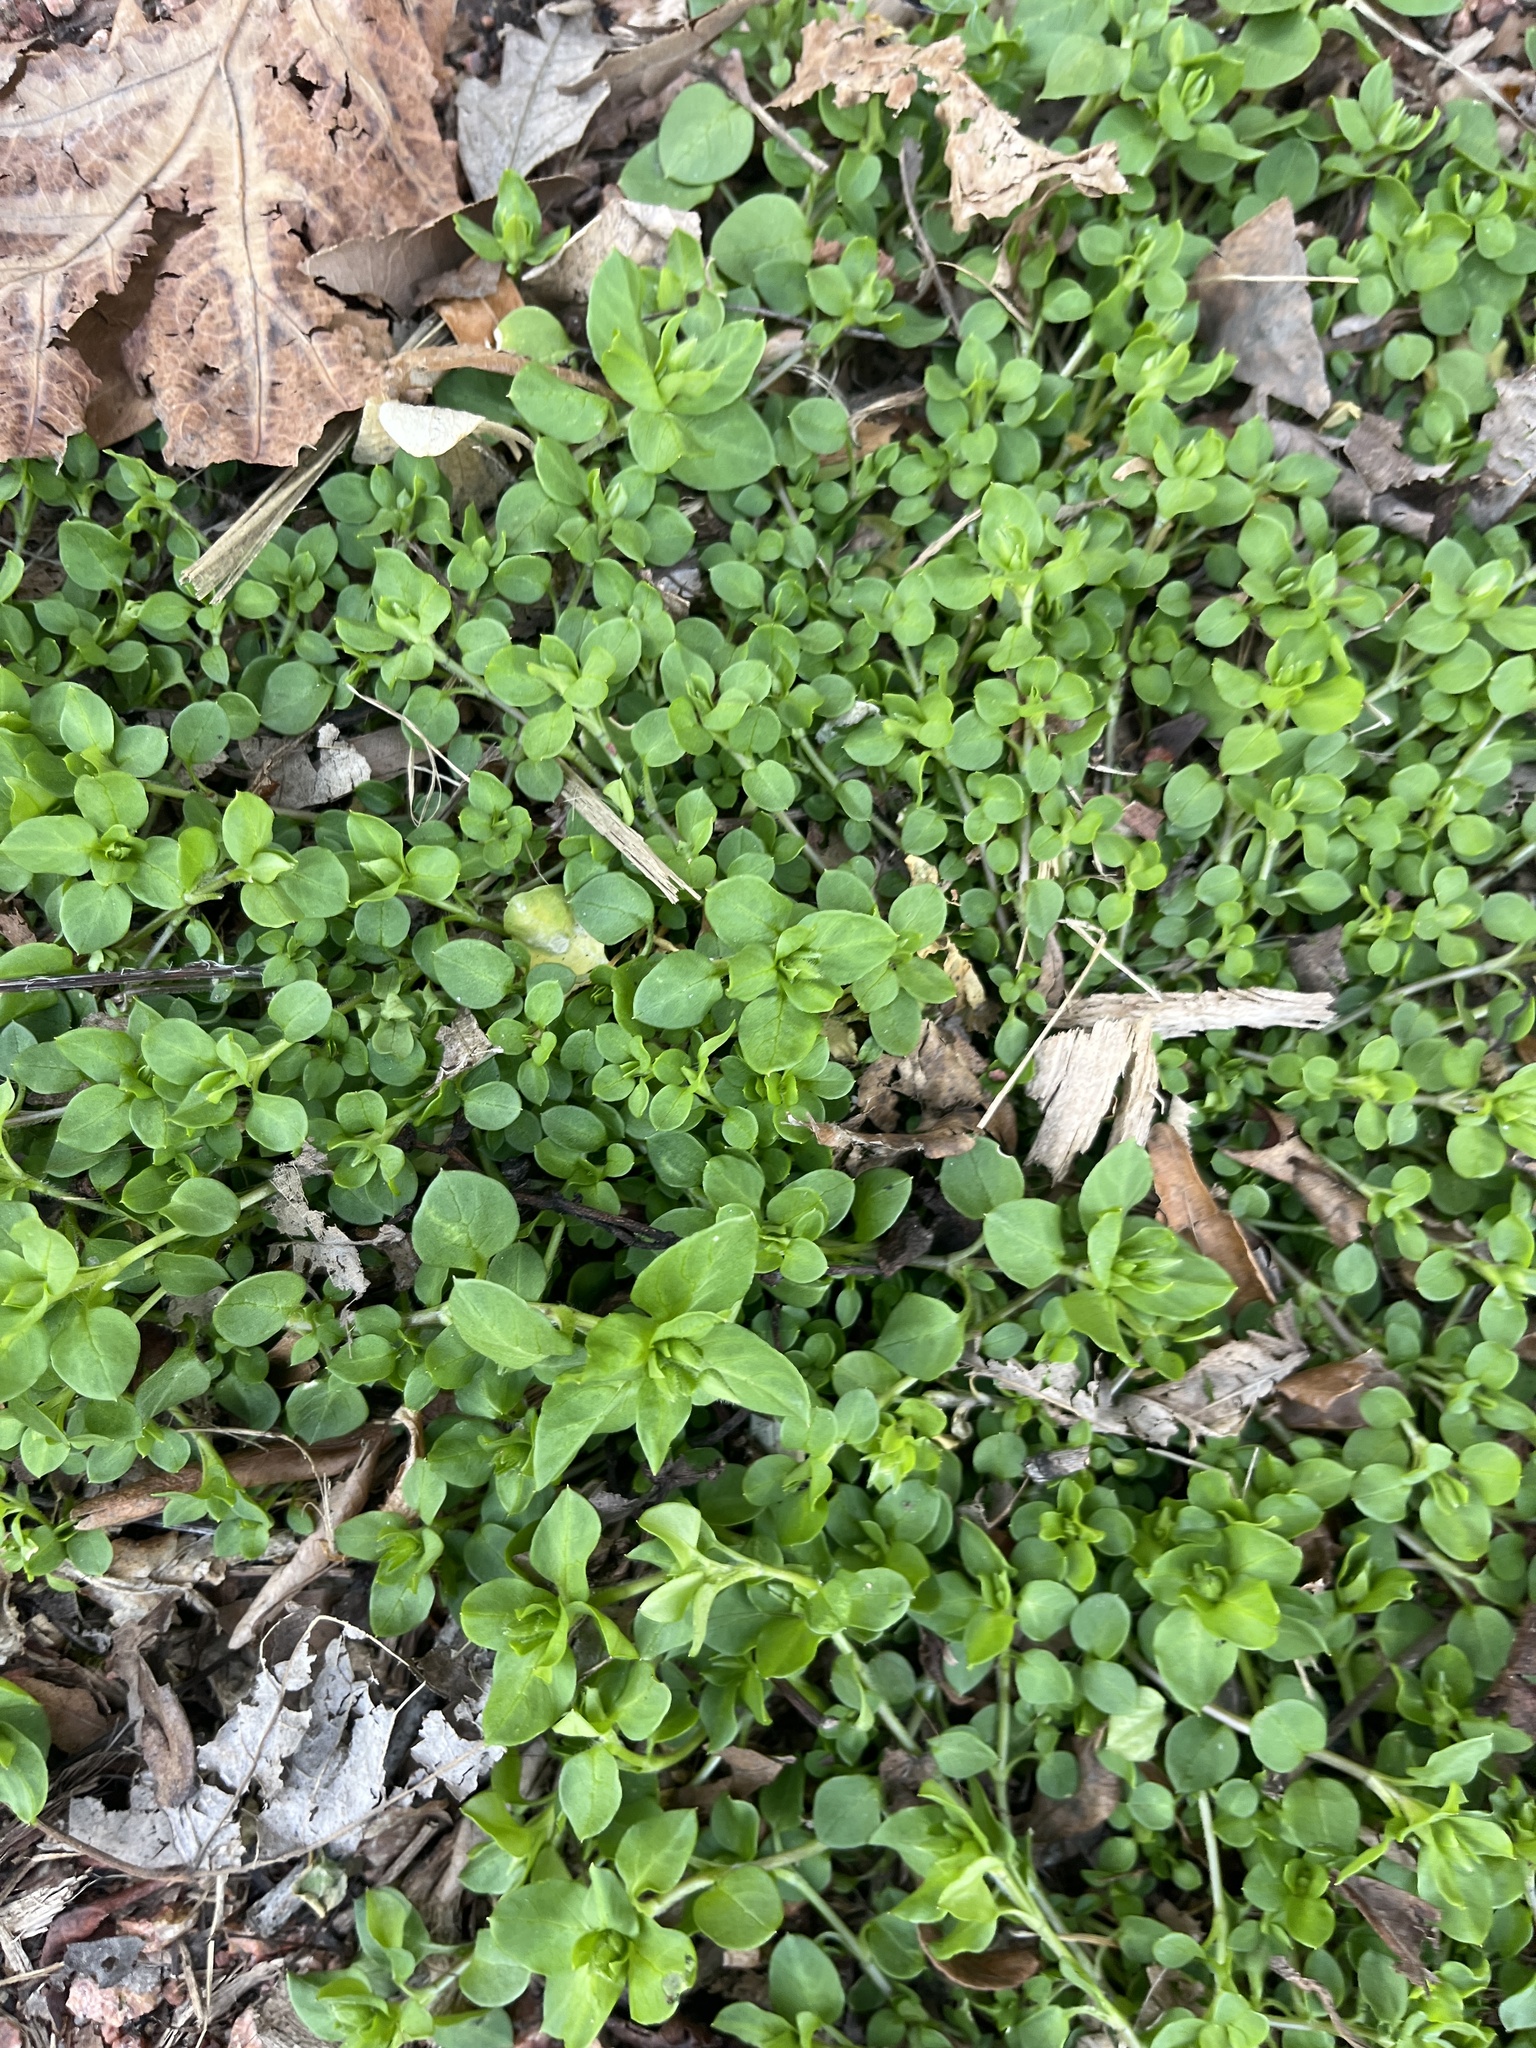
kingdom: Plantae
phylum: Tracheophyta
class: Magnoliopsida
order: Caryophyllales
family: Caryophyllaceae
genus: Stellaria
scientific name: Stellaria media
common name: Common chickweed
